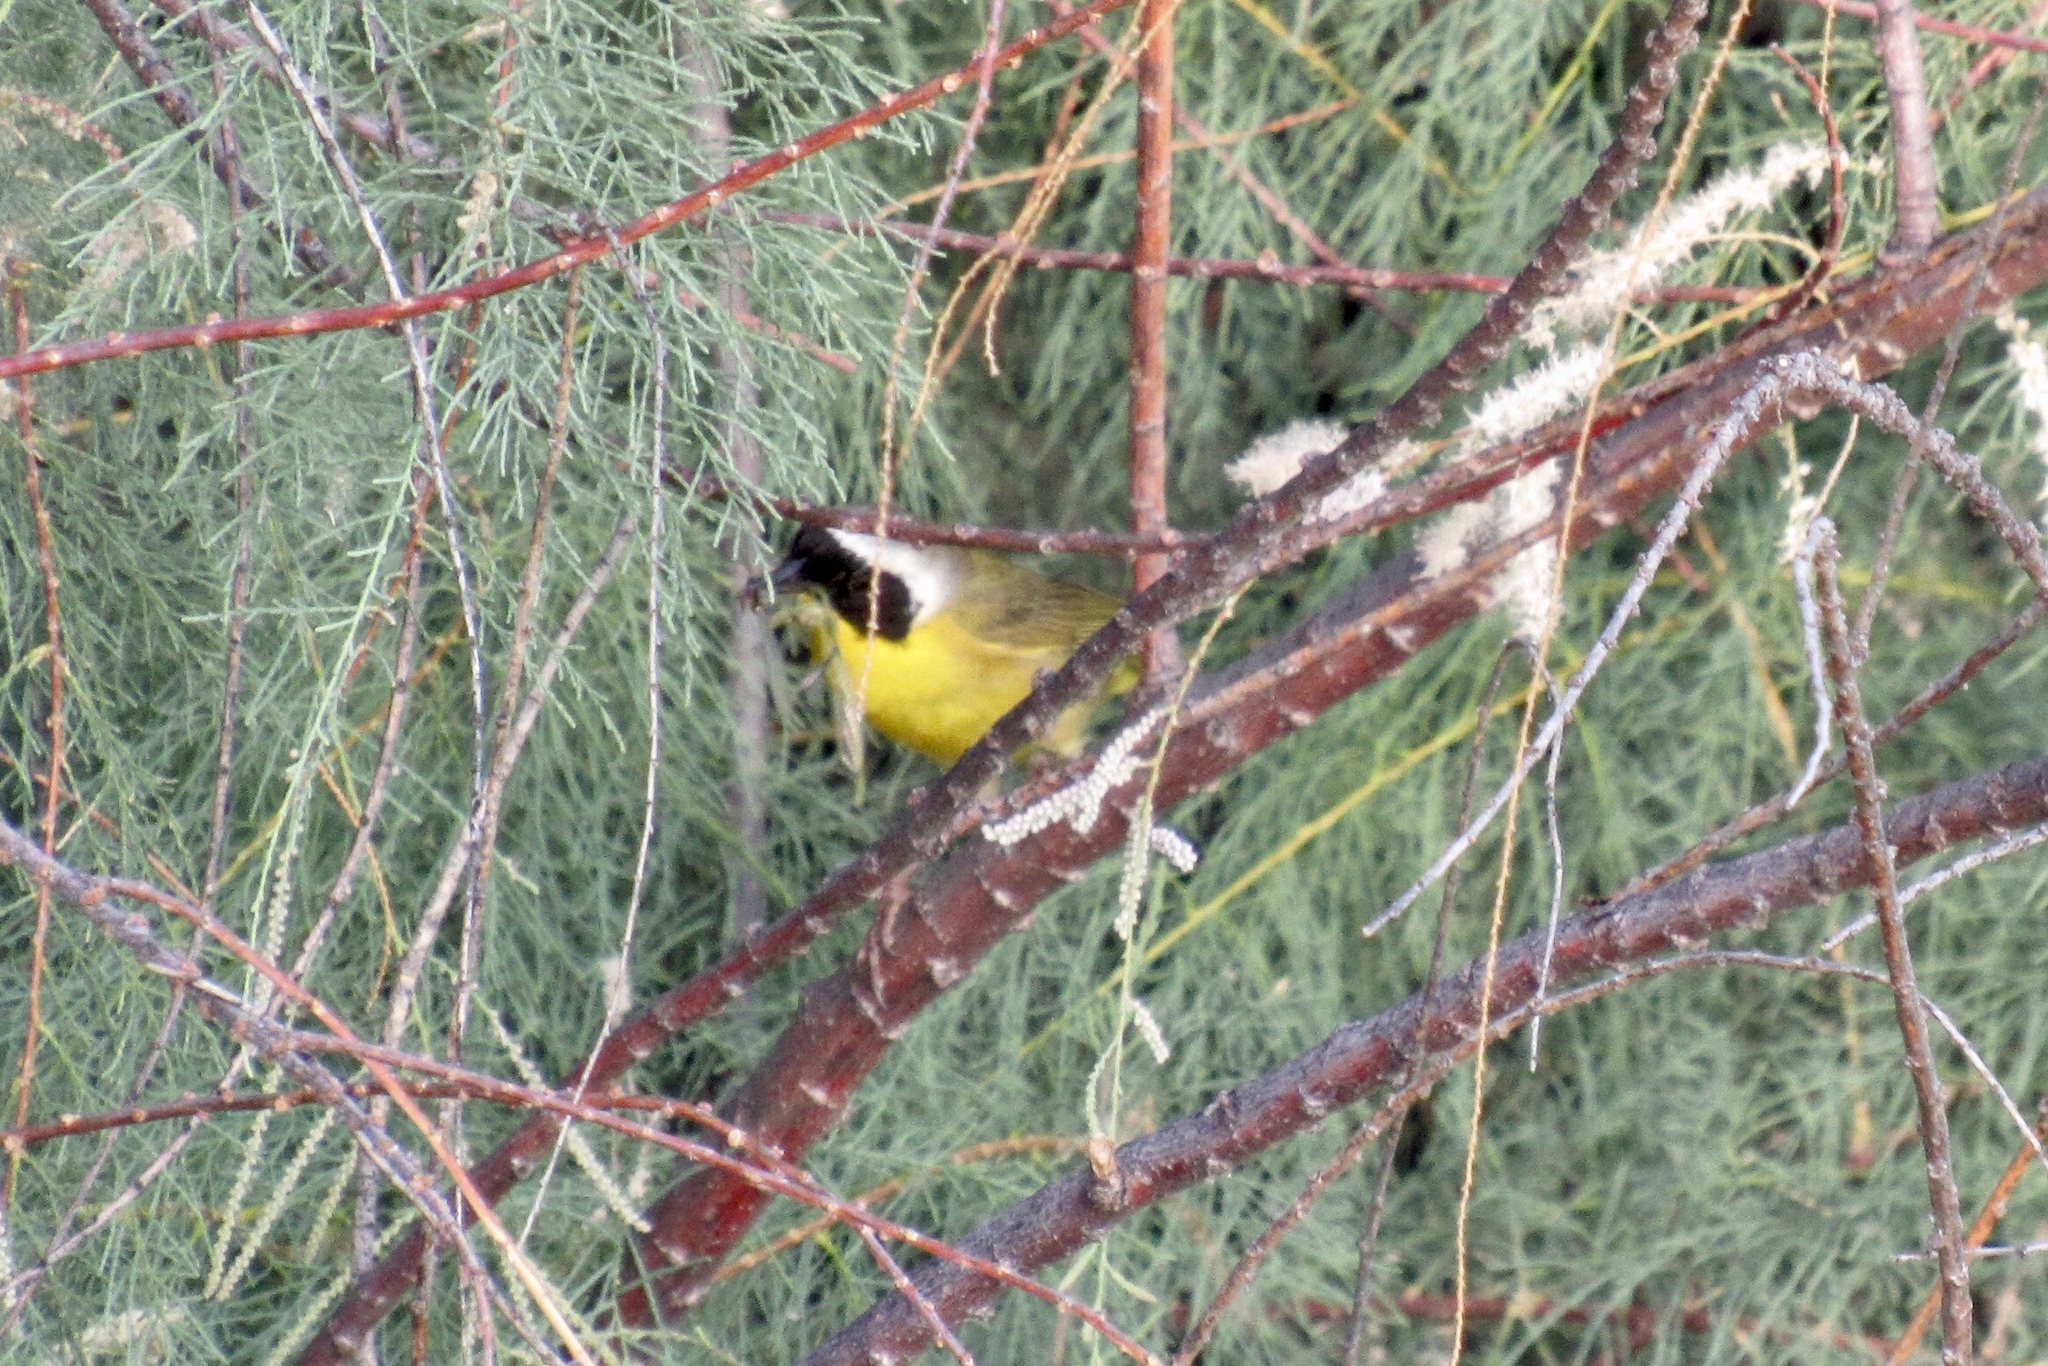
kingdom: Animalia
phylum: Chordata
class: Aves
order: Passeriformes
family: Parulidae
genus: Geothlypis
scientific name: Geothlypis trichas
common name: Common yellowthroat
